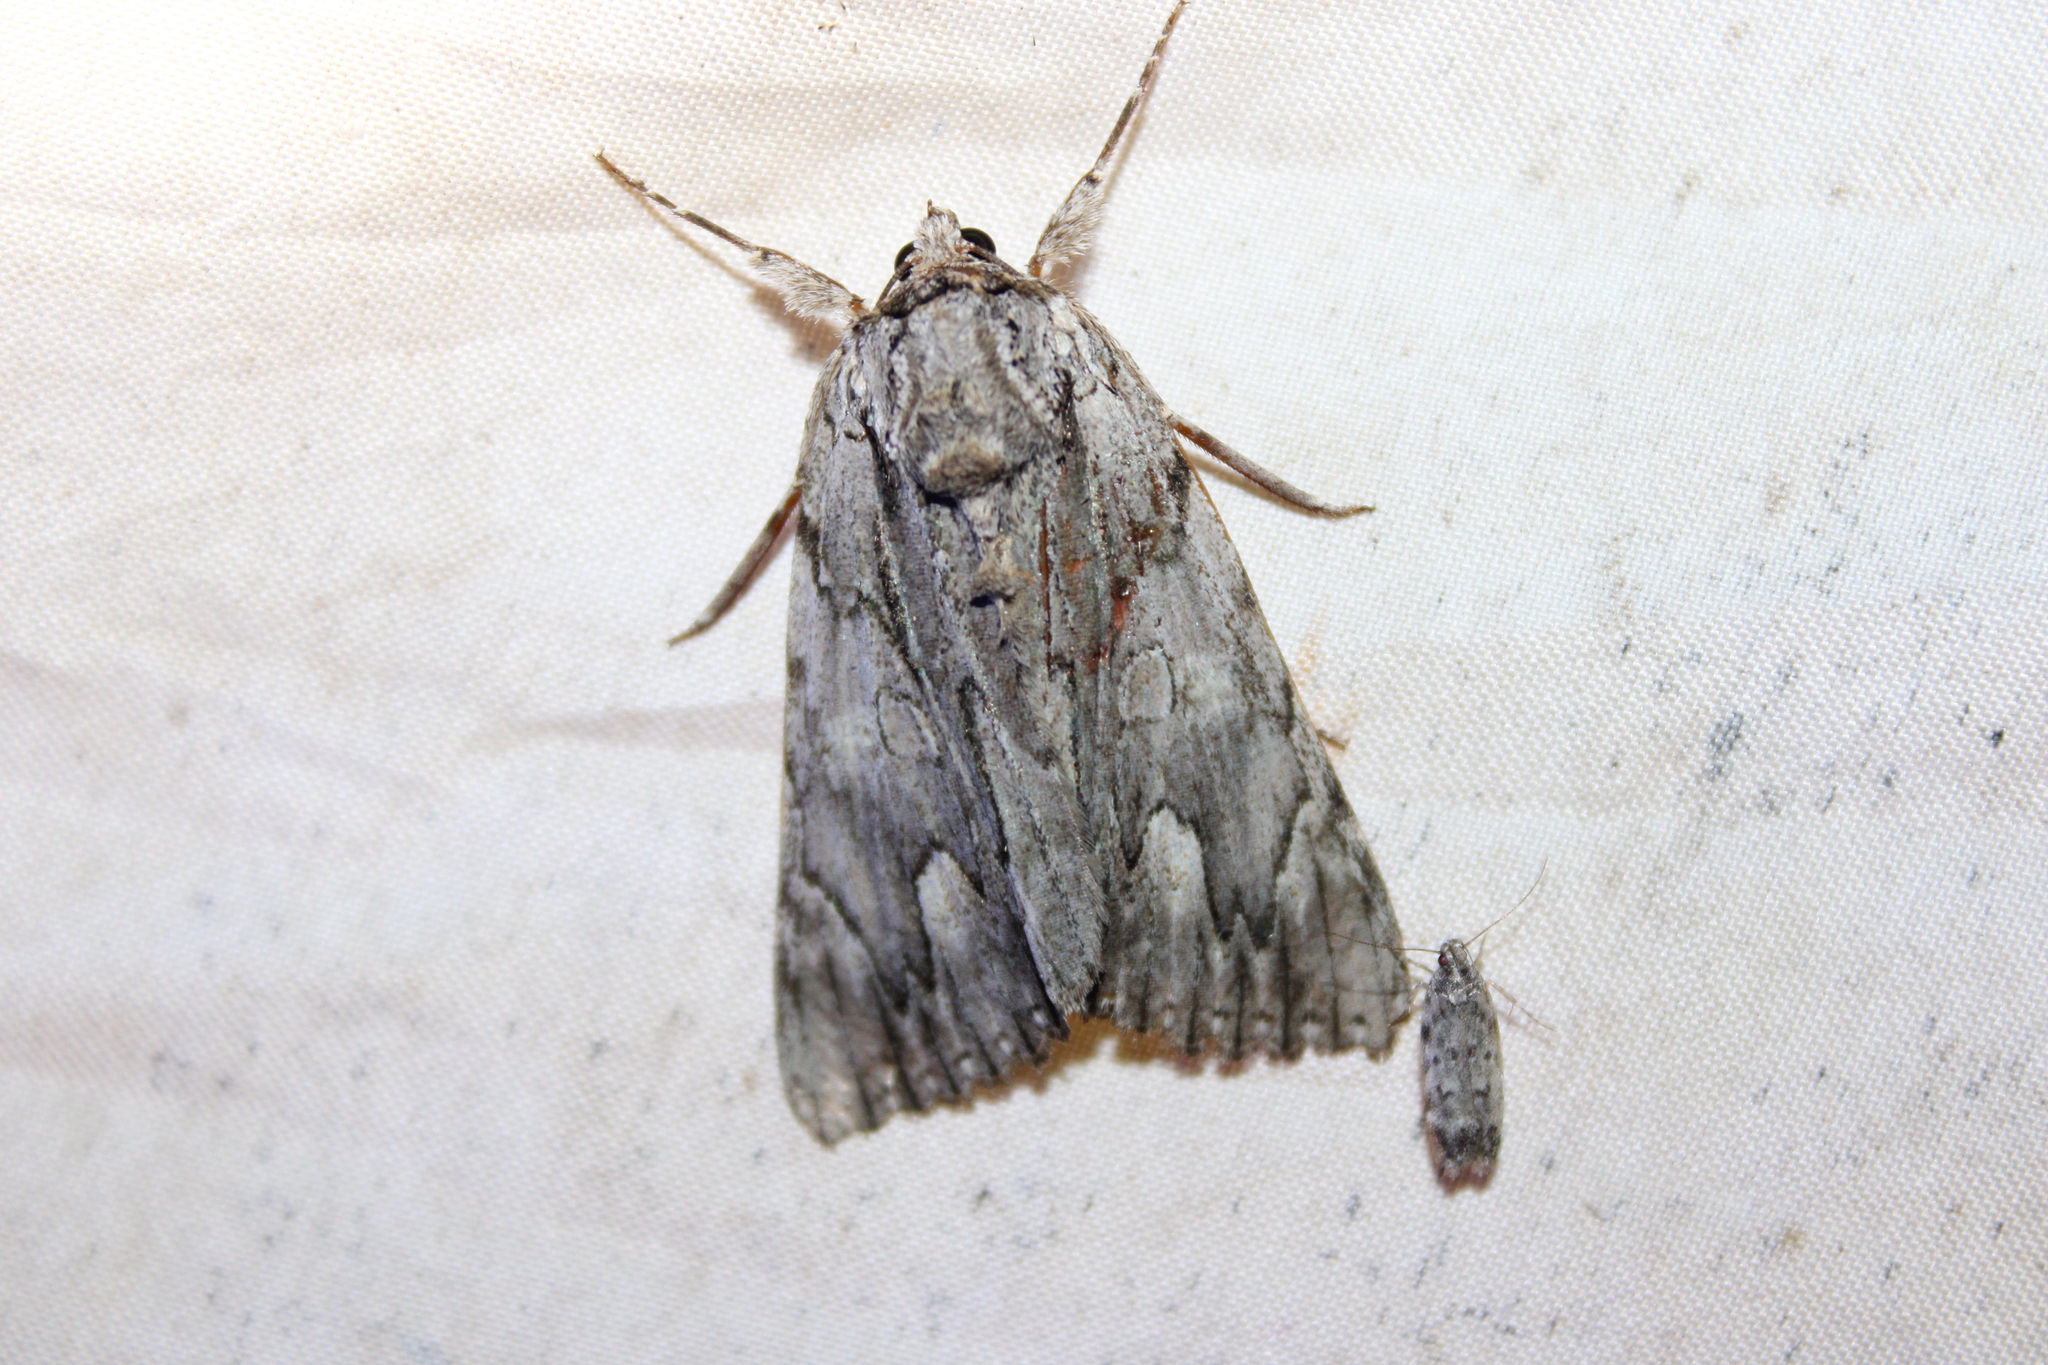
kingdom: Animalia
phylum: Arthropoda
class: Insecta
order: Lepidoptera
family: Erebidae
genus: Catocala
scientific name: Catocala coccinata
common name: Scarlet underwing
